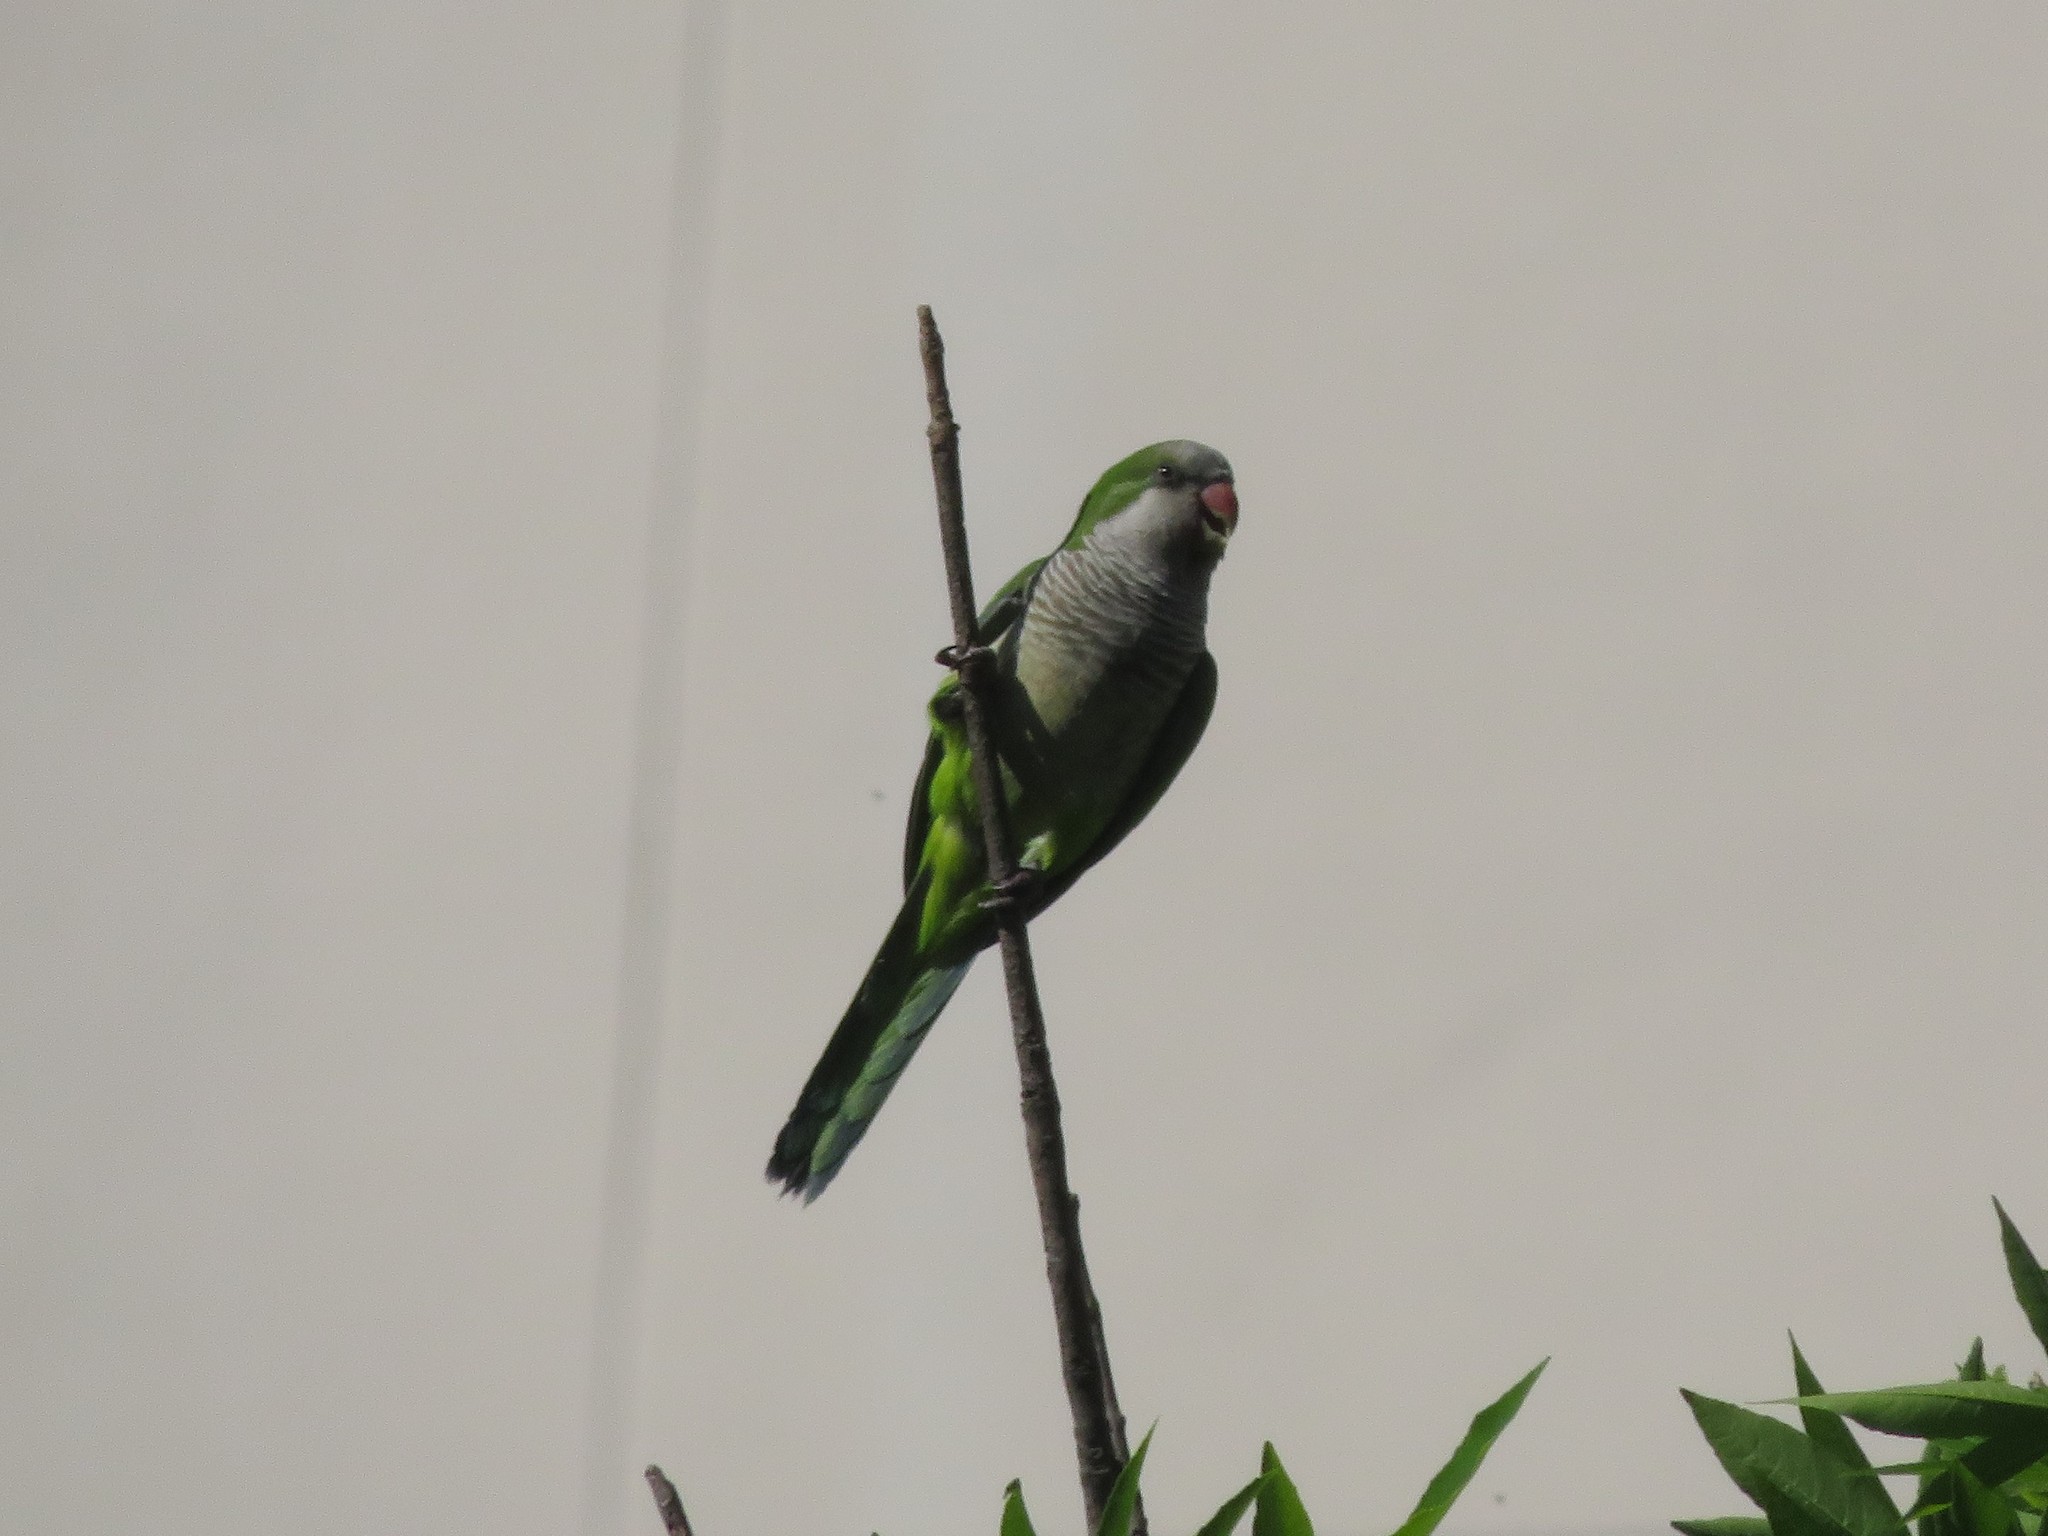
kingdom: Animalia
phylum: Chordata
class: Aves
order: Psittaciformes
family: Psittacidae
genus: Myiopsitta
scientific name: Myiopsitta monachus
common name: Monk parakeet
